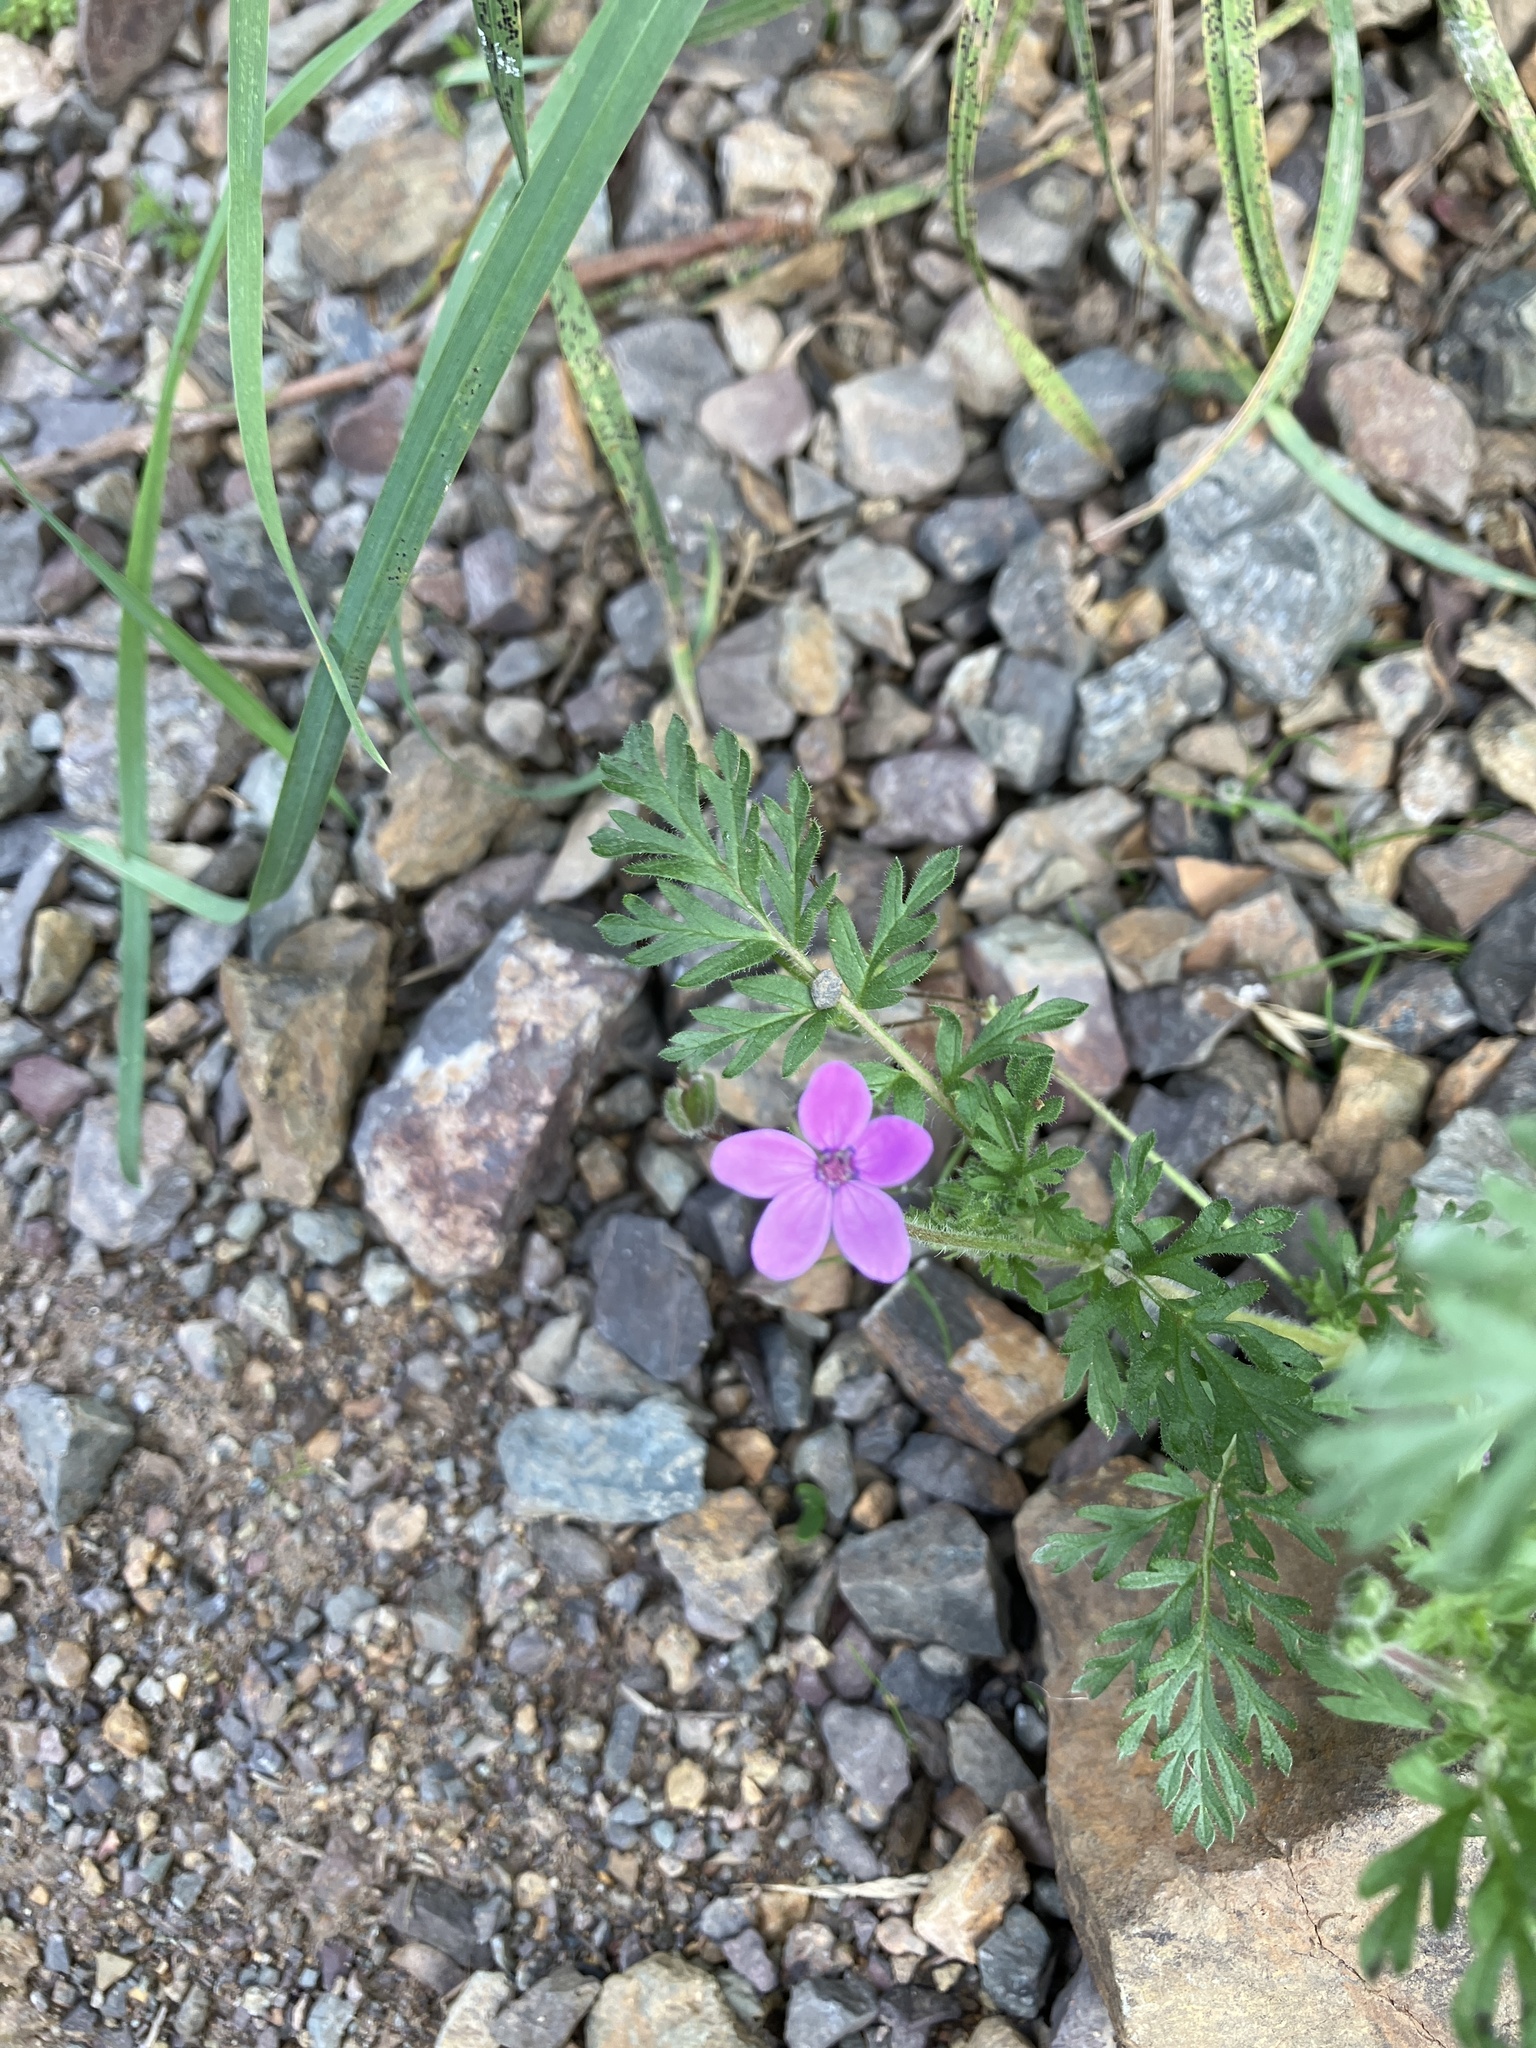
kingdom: Plantae
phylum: Tracheophyta
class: Magnoliopsida
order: Geraniales
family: Geraniaceae
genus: Erodium
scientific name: Erodium cicutarium
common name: Common stork's-bill
